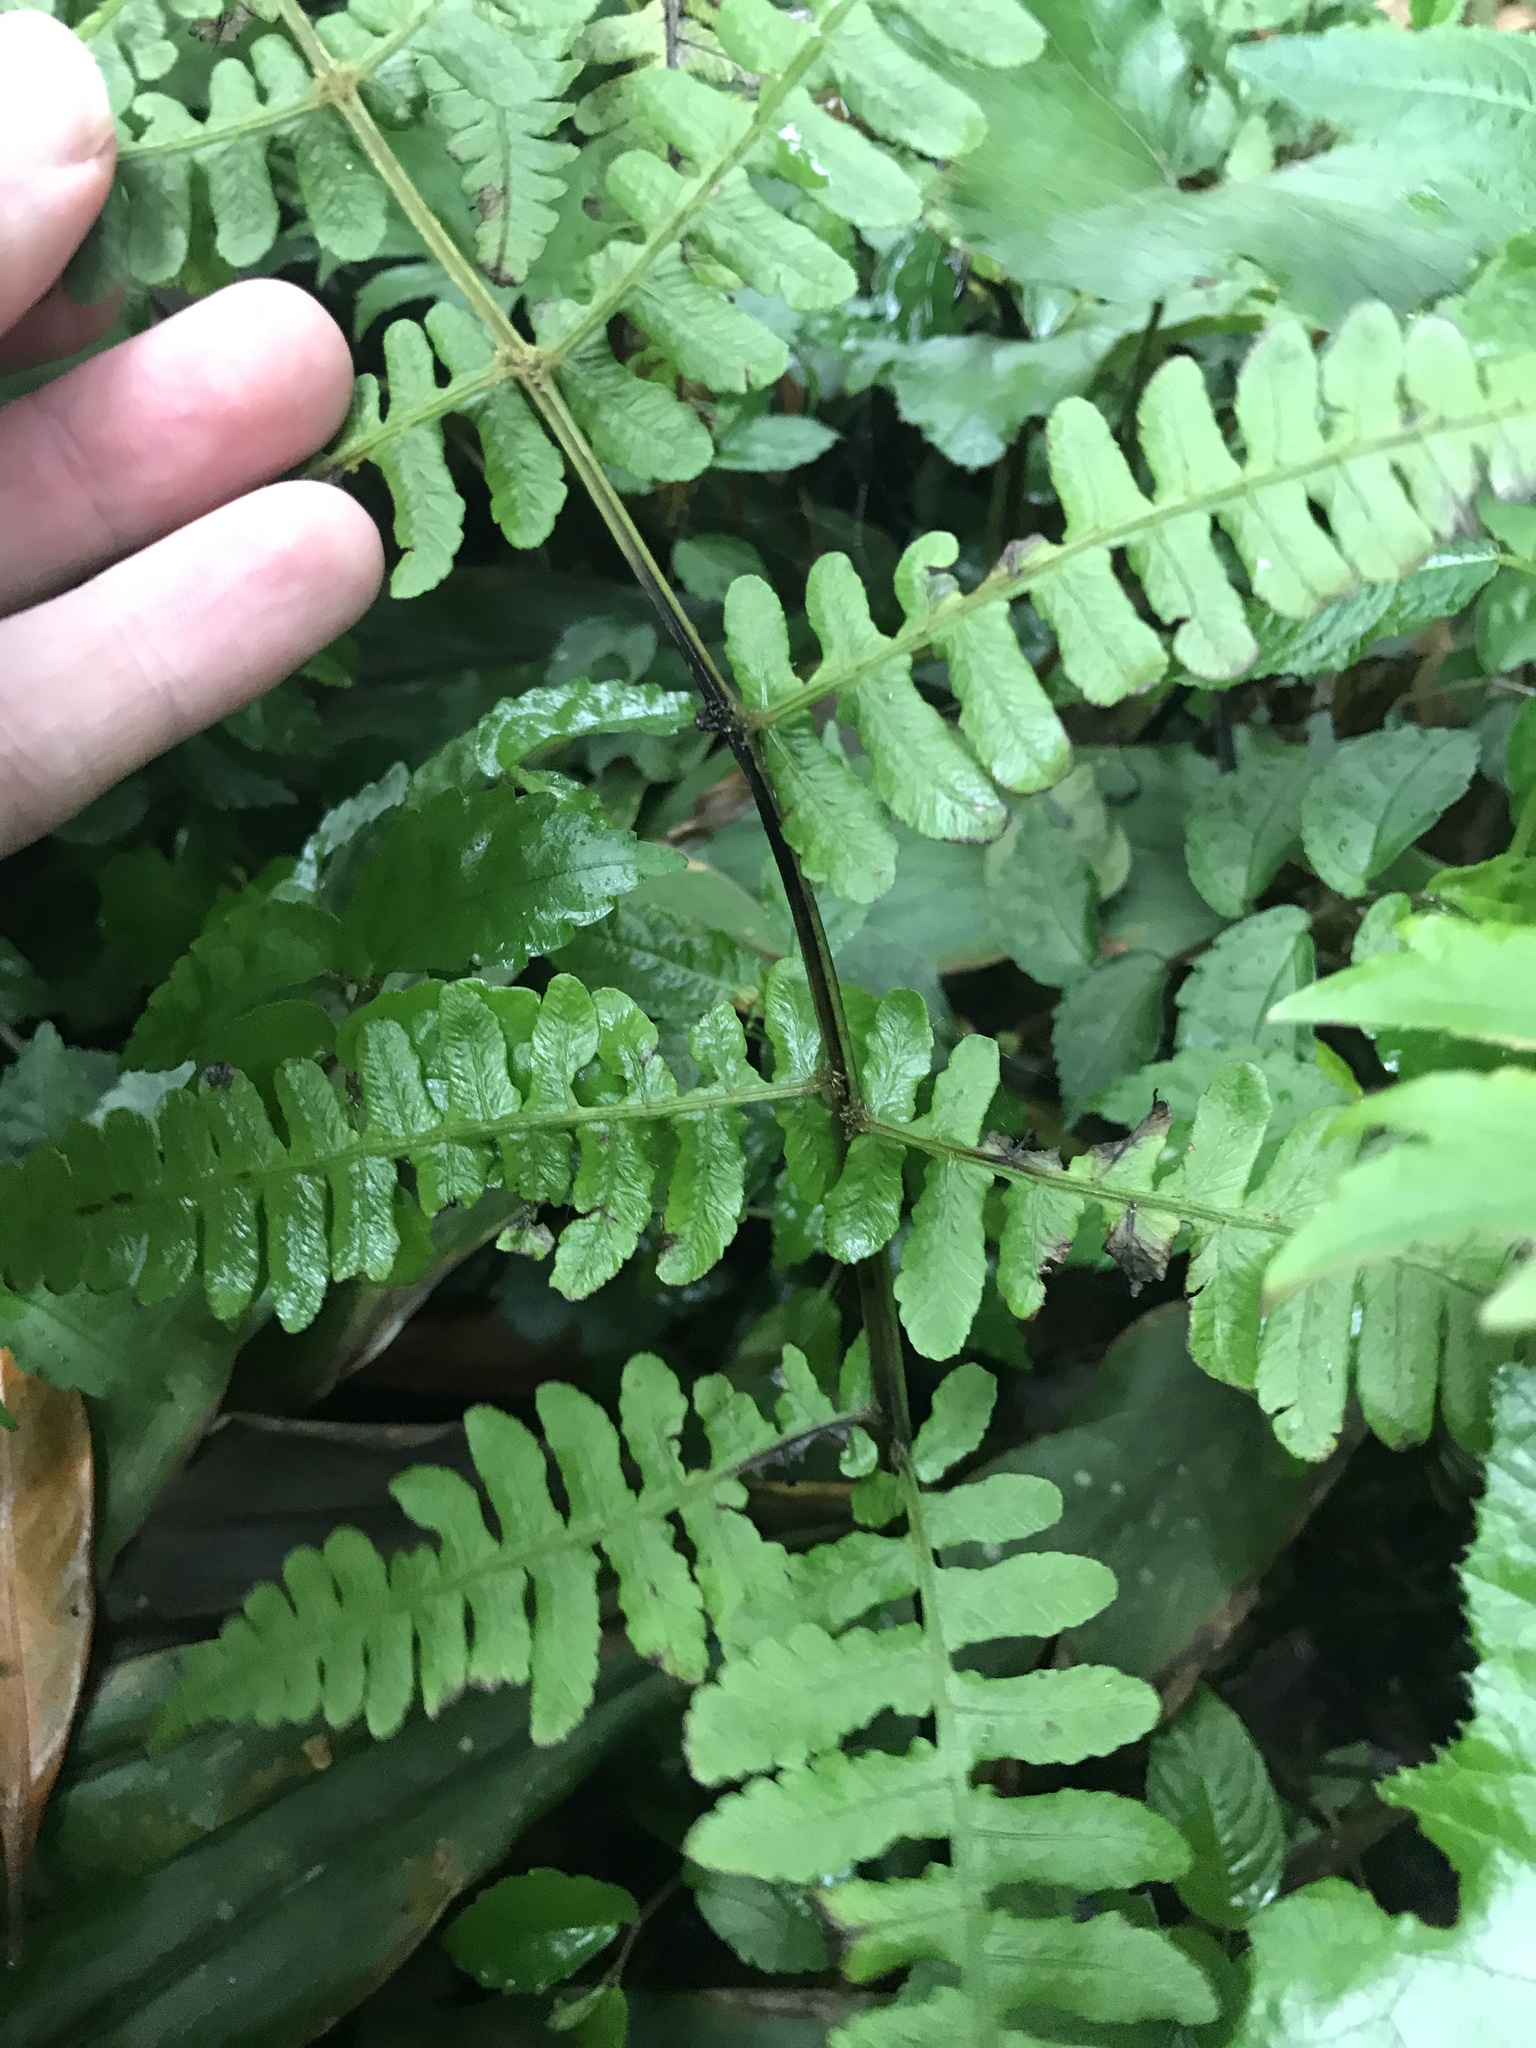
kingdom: Plantae
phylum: Tracheophyta
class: Polypodiopsida
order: Polypodiales
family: Athyriaceae
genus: Cornopteris
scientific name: Cornopteris decurrentialata
